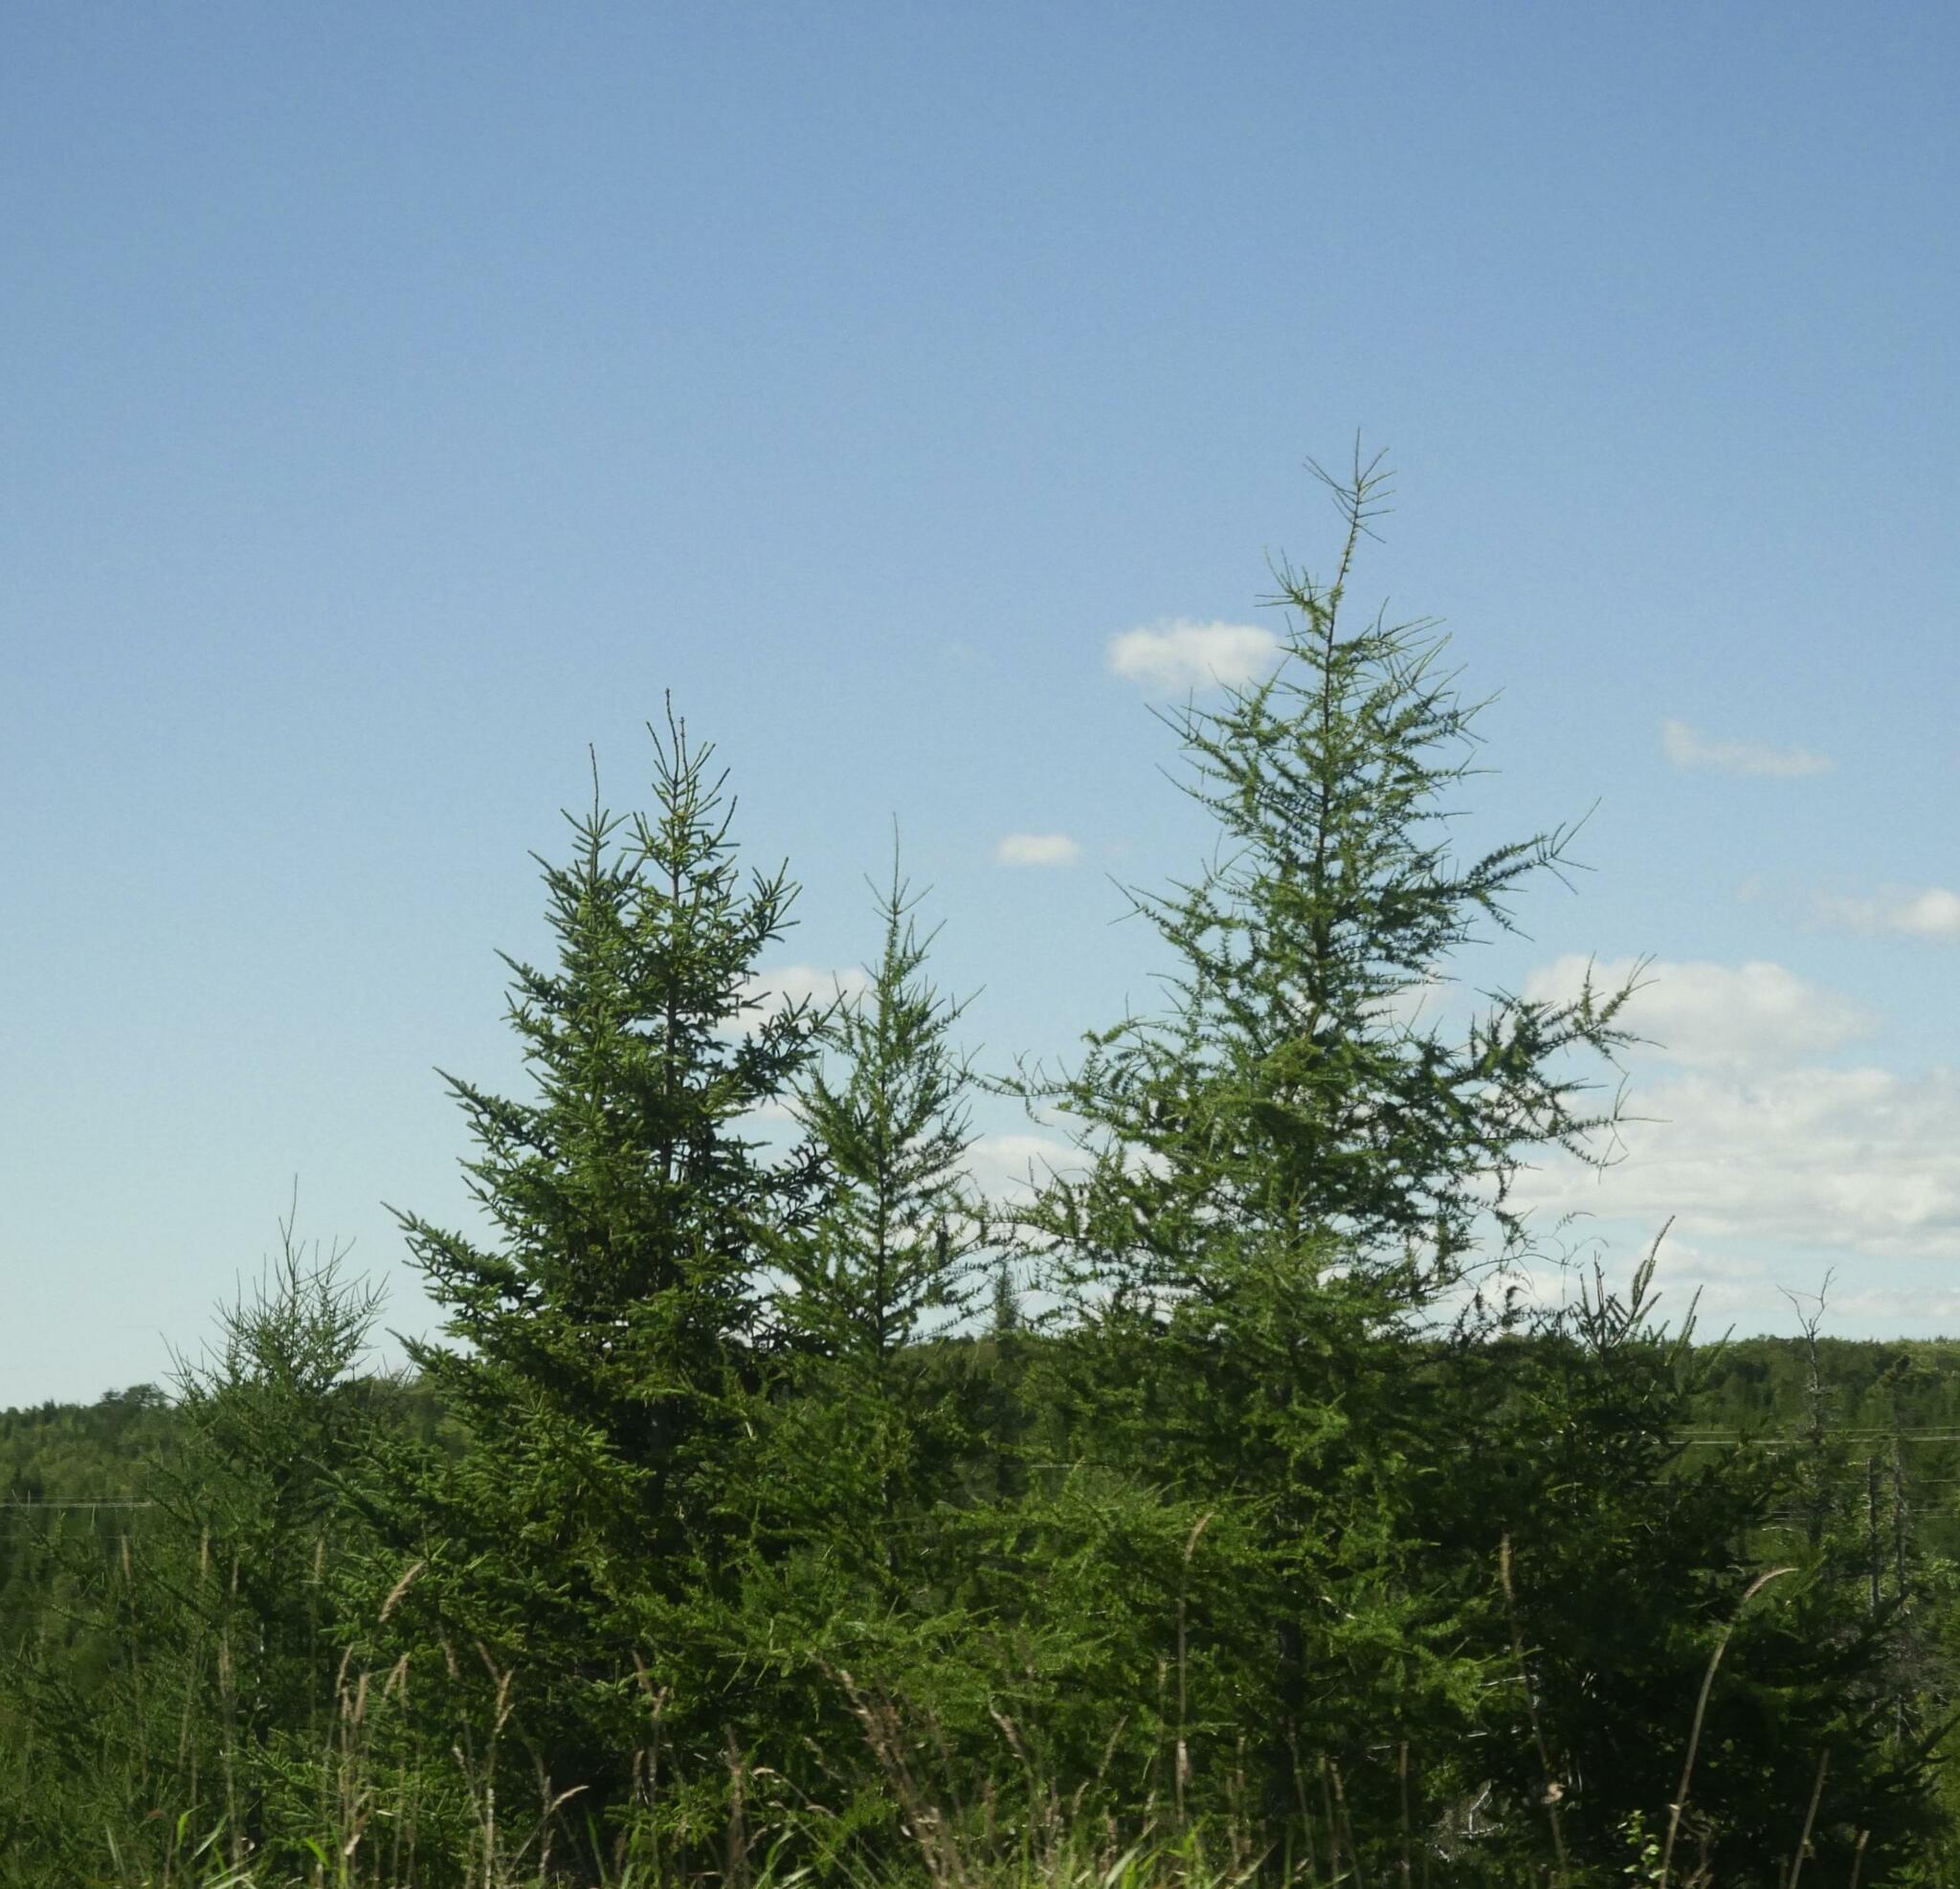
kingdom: Plantae
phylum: Tracheophyta
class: Pinopsida
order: Pinales
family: Pinaceae
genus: Larix
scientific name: Larix laricina
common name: American larch
